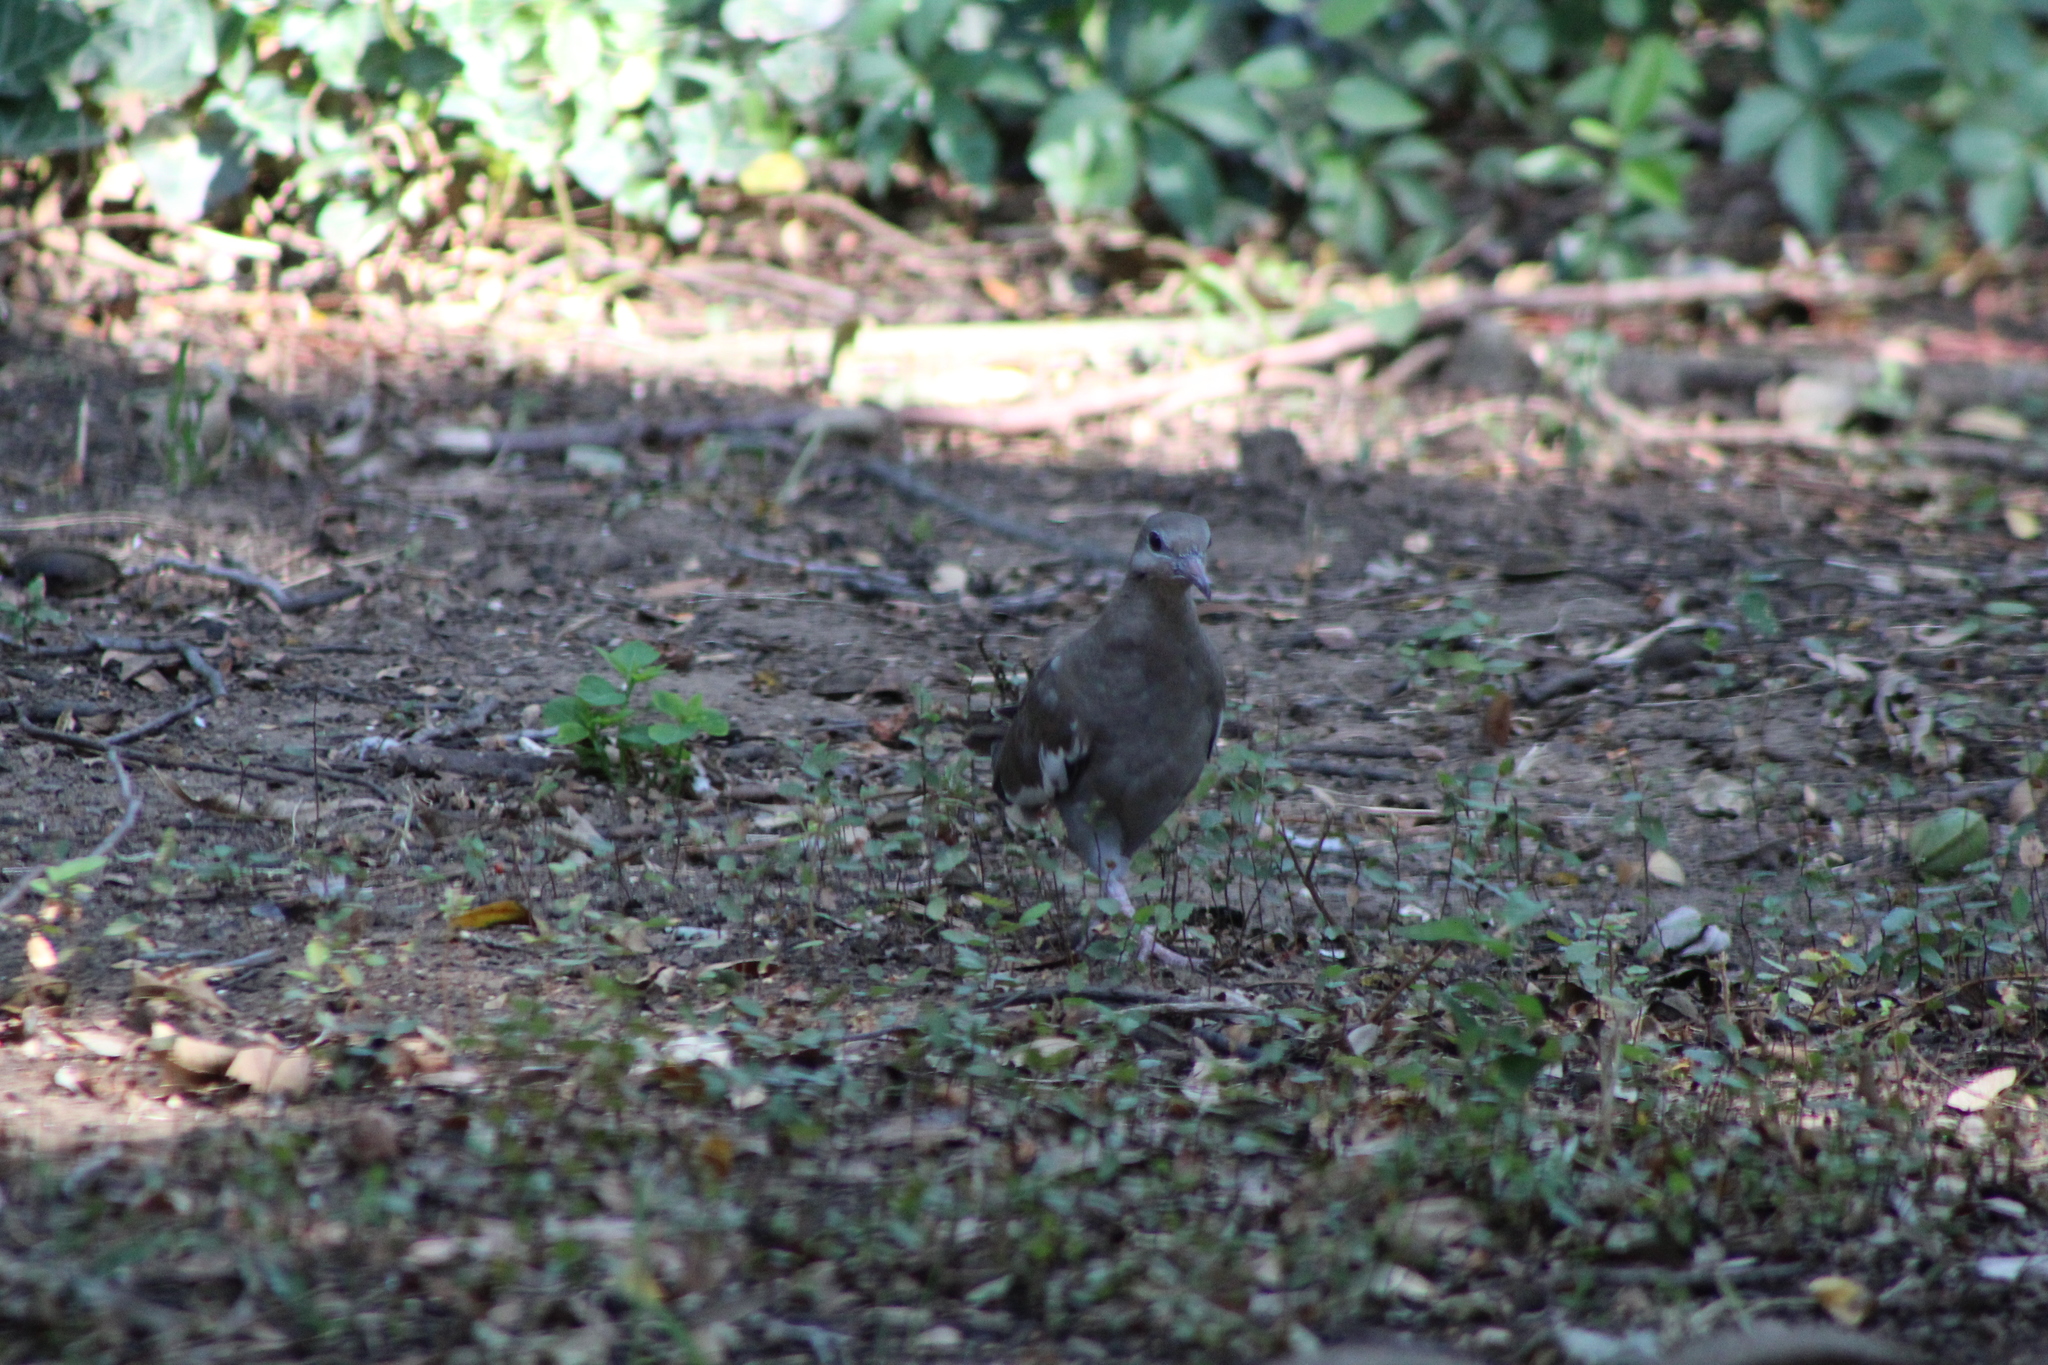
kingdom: Animalia
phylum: Chordata
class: Aves
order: Columbiformes
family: Columbidae
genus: Zenaida
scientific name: Zenaida asiatica
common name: White-winged dove
